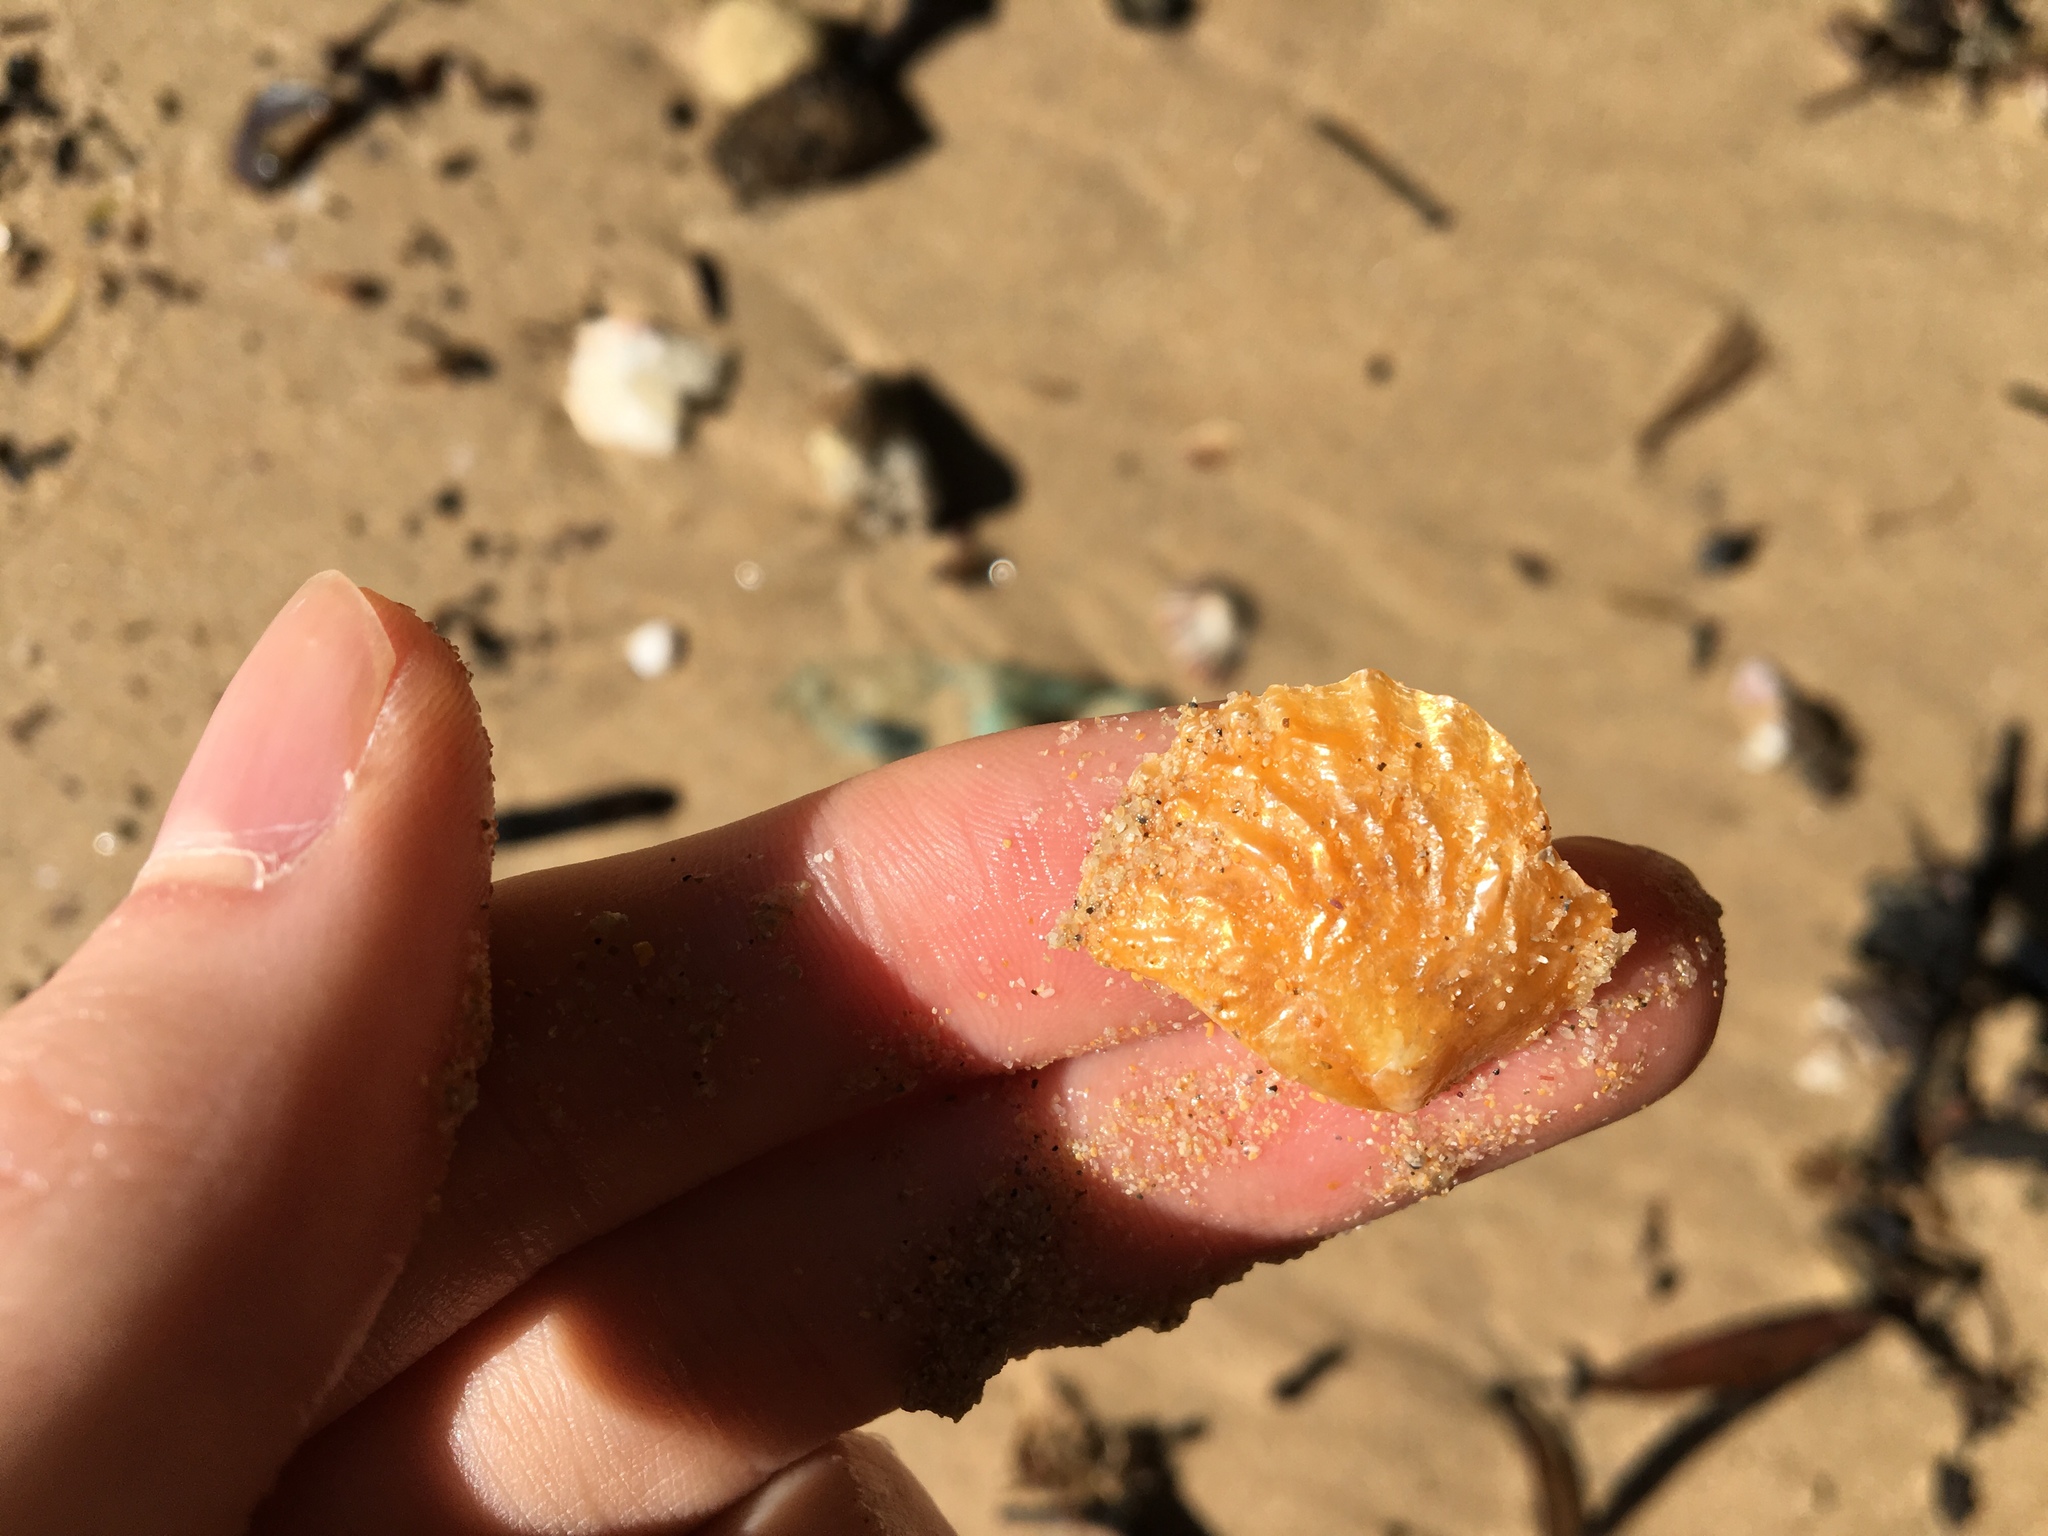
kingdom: Animalia
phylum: Mollusca
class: Bivalvia
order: Pectinida
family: Anomiidae
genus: Anomia
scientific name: Anomia trigonopsis
